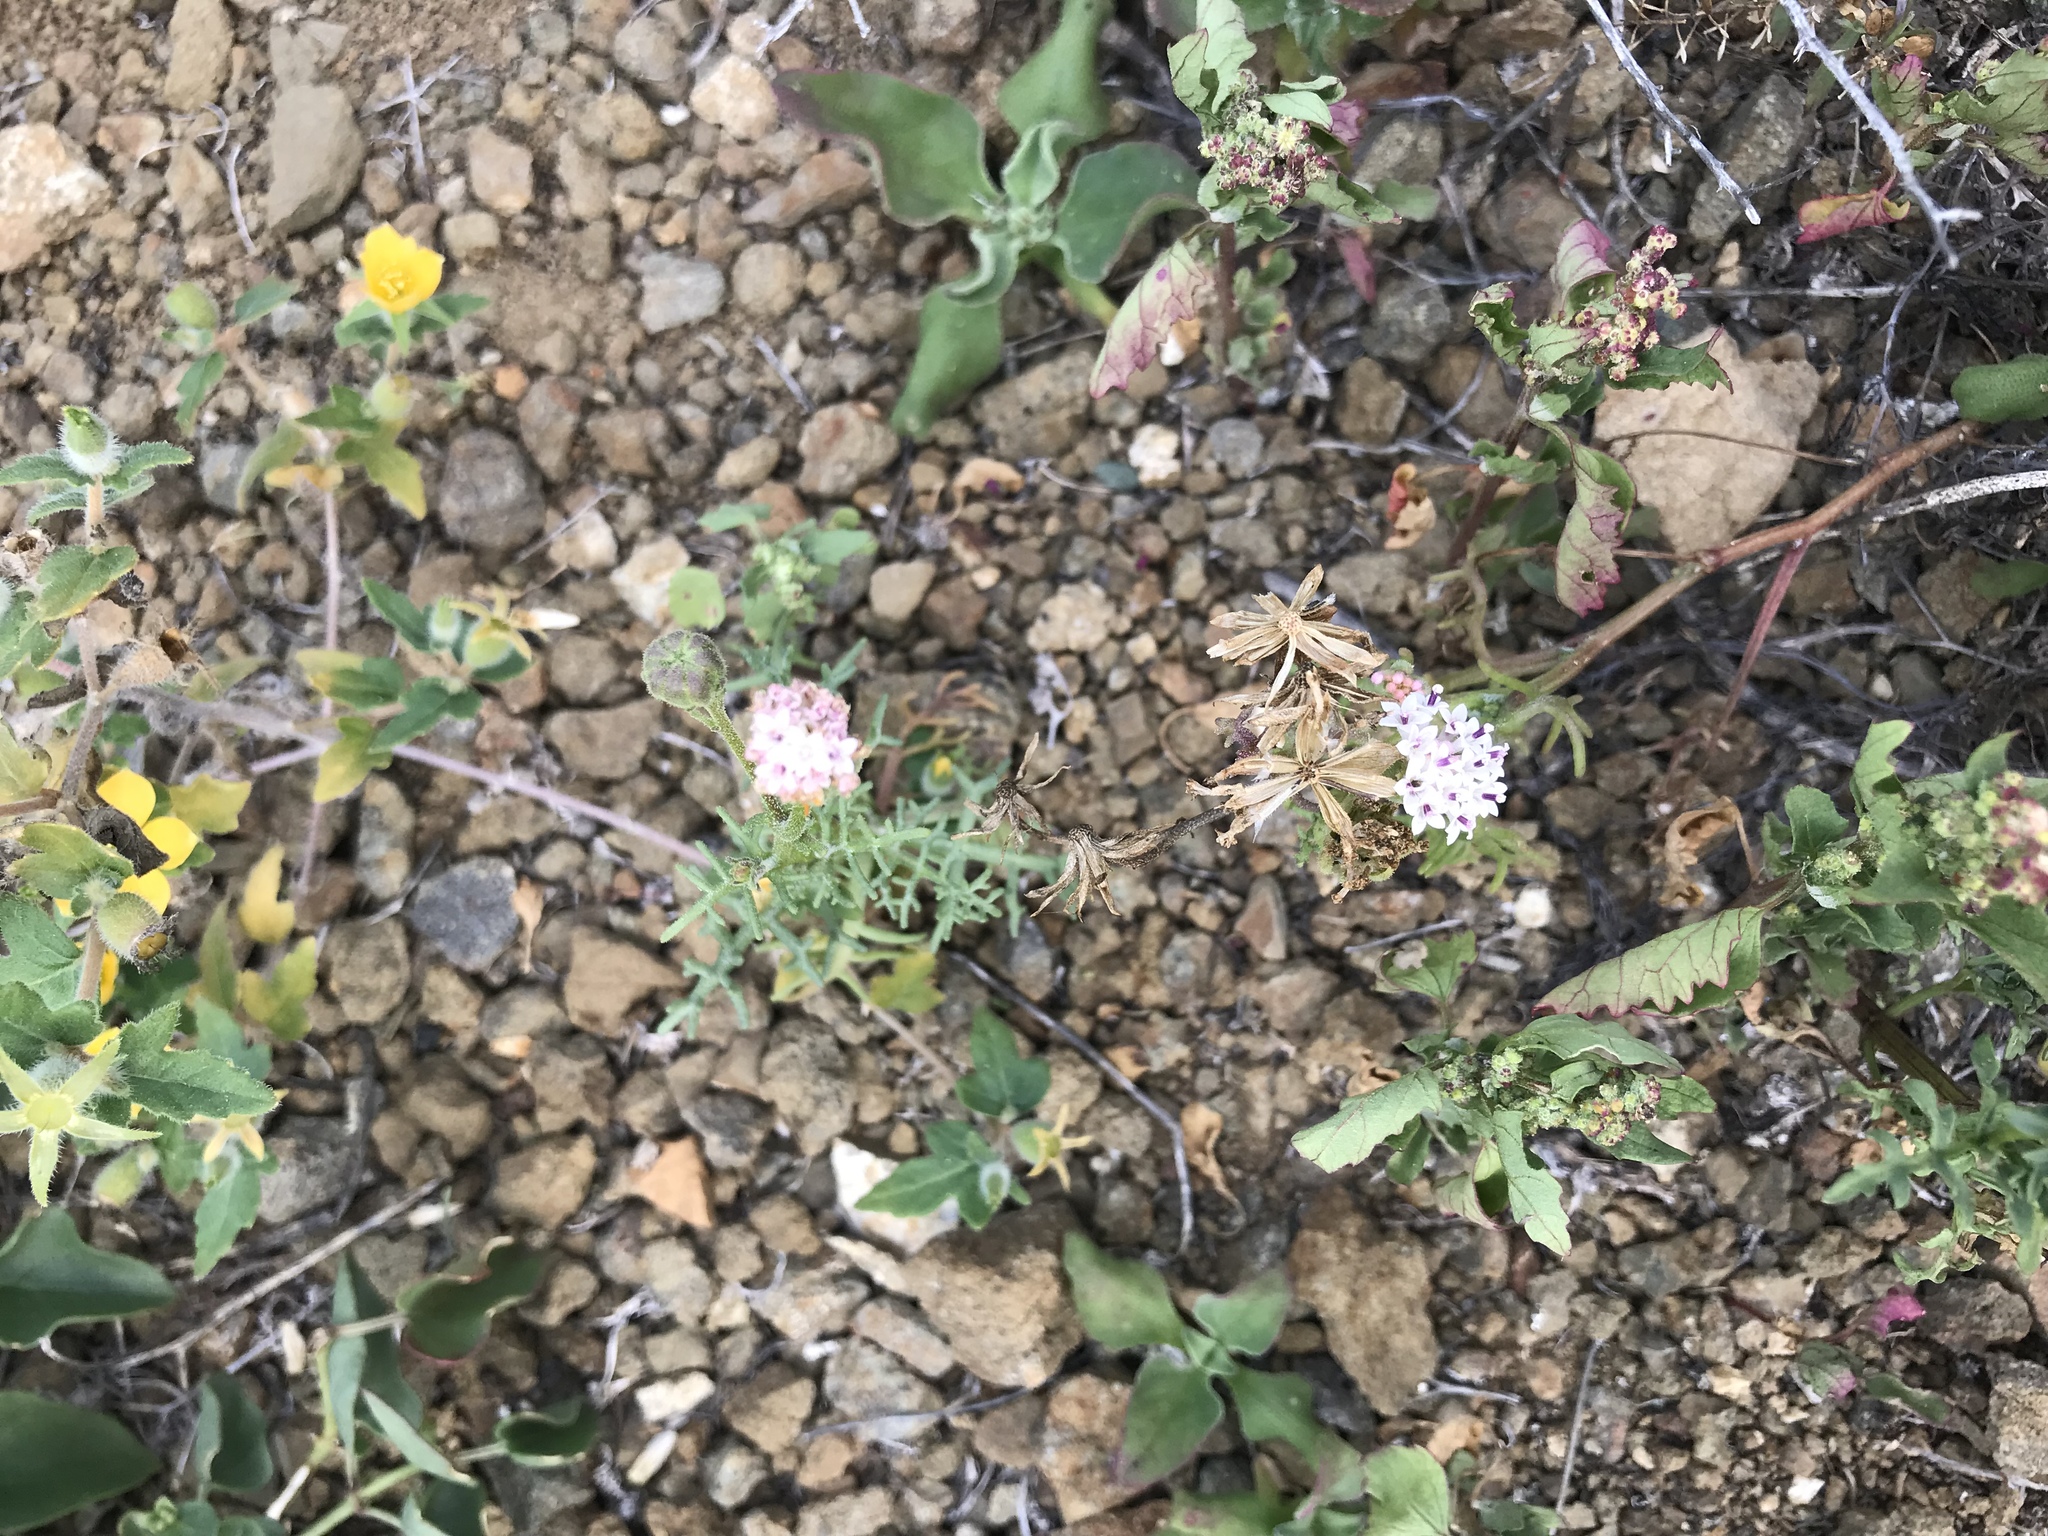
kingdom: Plantae
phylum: Tracheophyta
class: Magnoliopsida
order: Asterales
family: Asteraceae
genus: Chaenactis
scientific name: Chaenactis lacera
